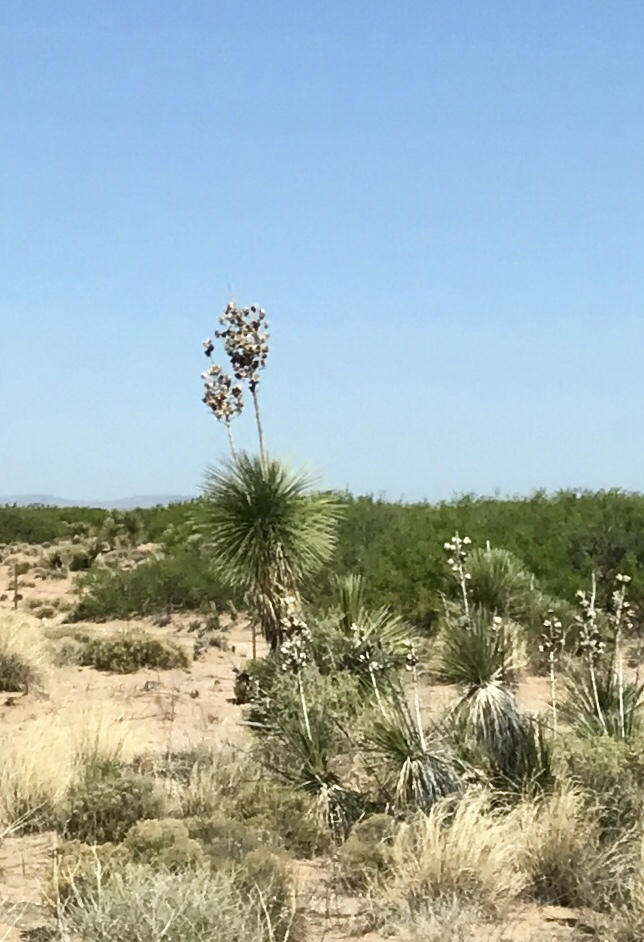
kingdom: Plantae
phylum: Tracheophyta
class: Liliopsida
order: Asparagales
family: Asparagaceae
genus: Yucca
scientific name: Yucca elata
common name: Palmella
